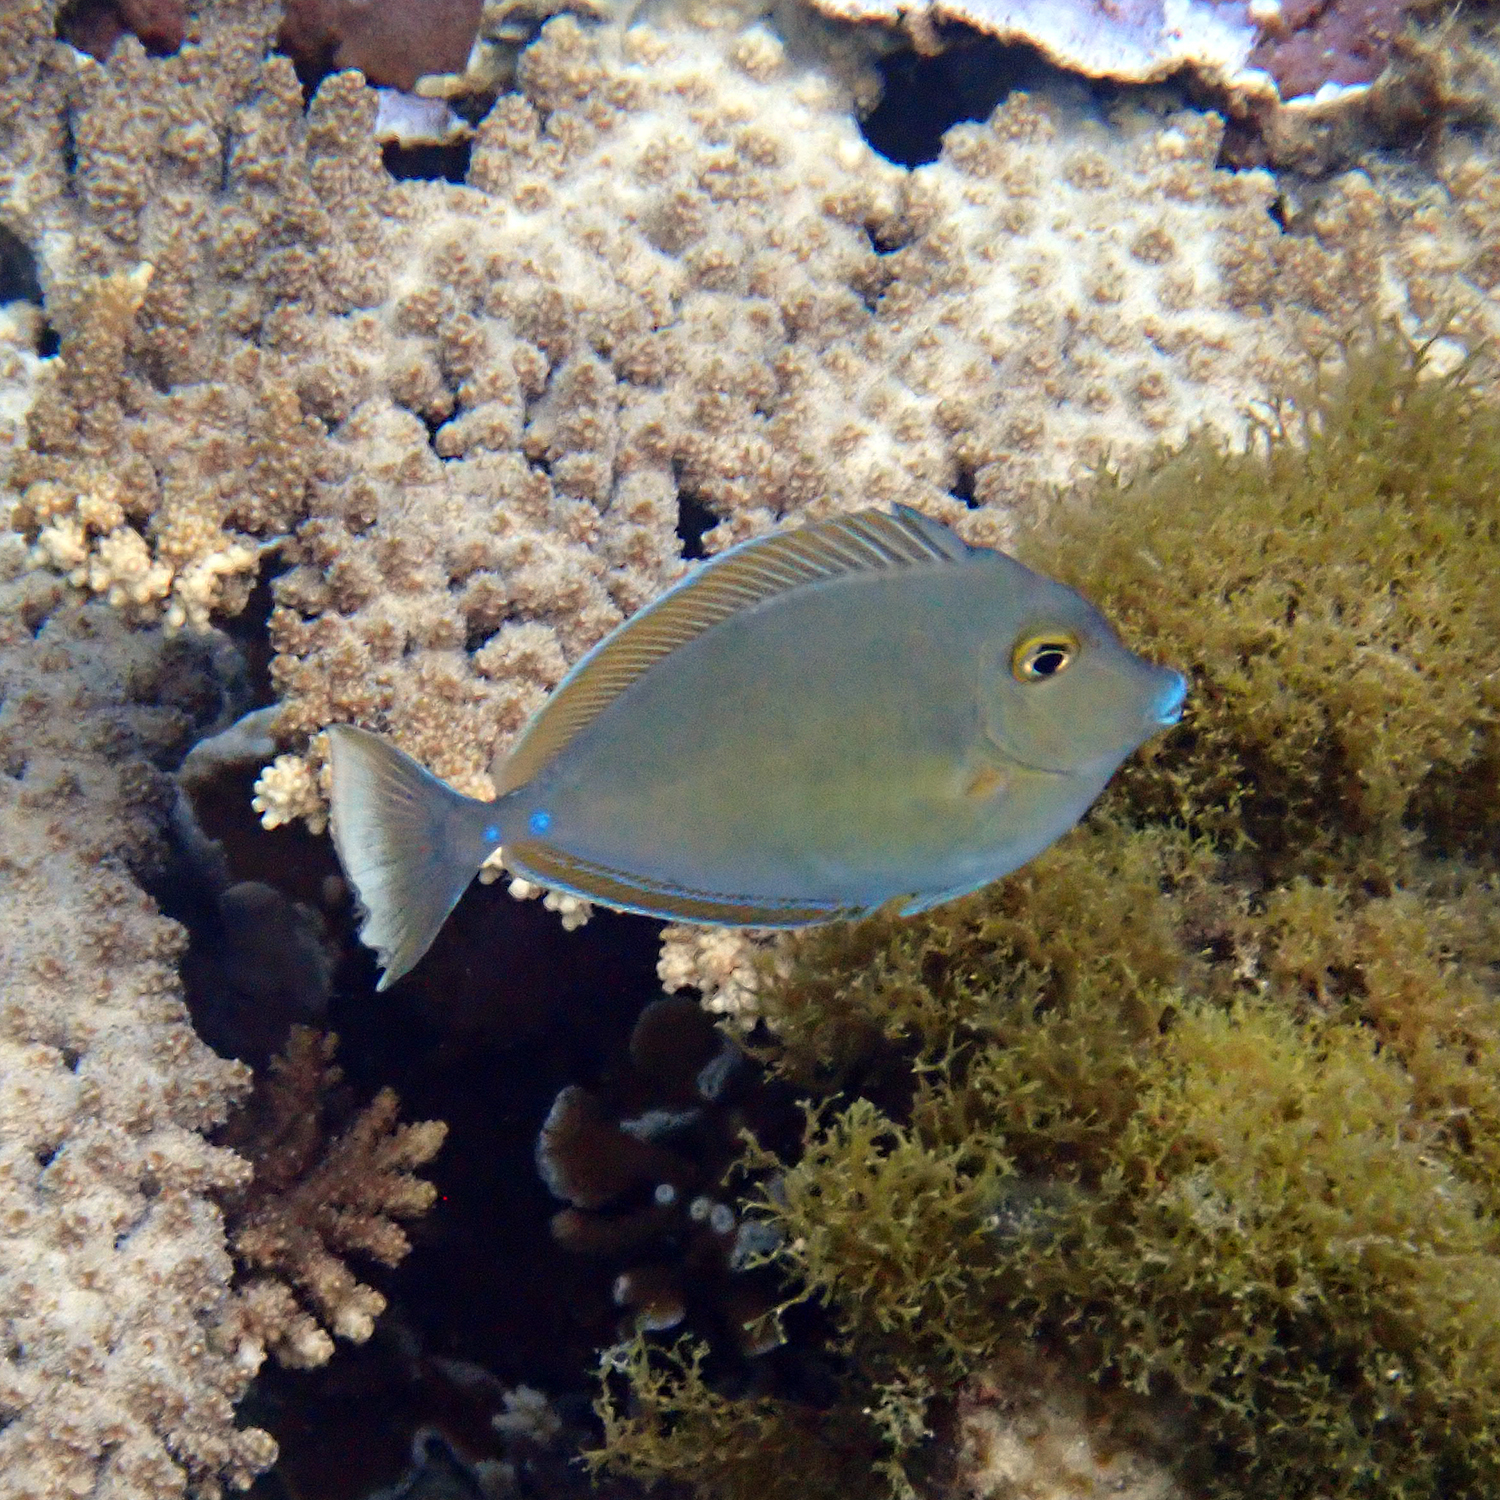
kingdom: Animalia
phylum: Chordata
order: Perciformes
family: Acanthuridae
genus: Naso
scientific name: Naso unicornis
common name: Bluespine unicornfish
